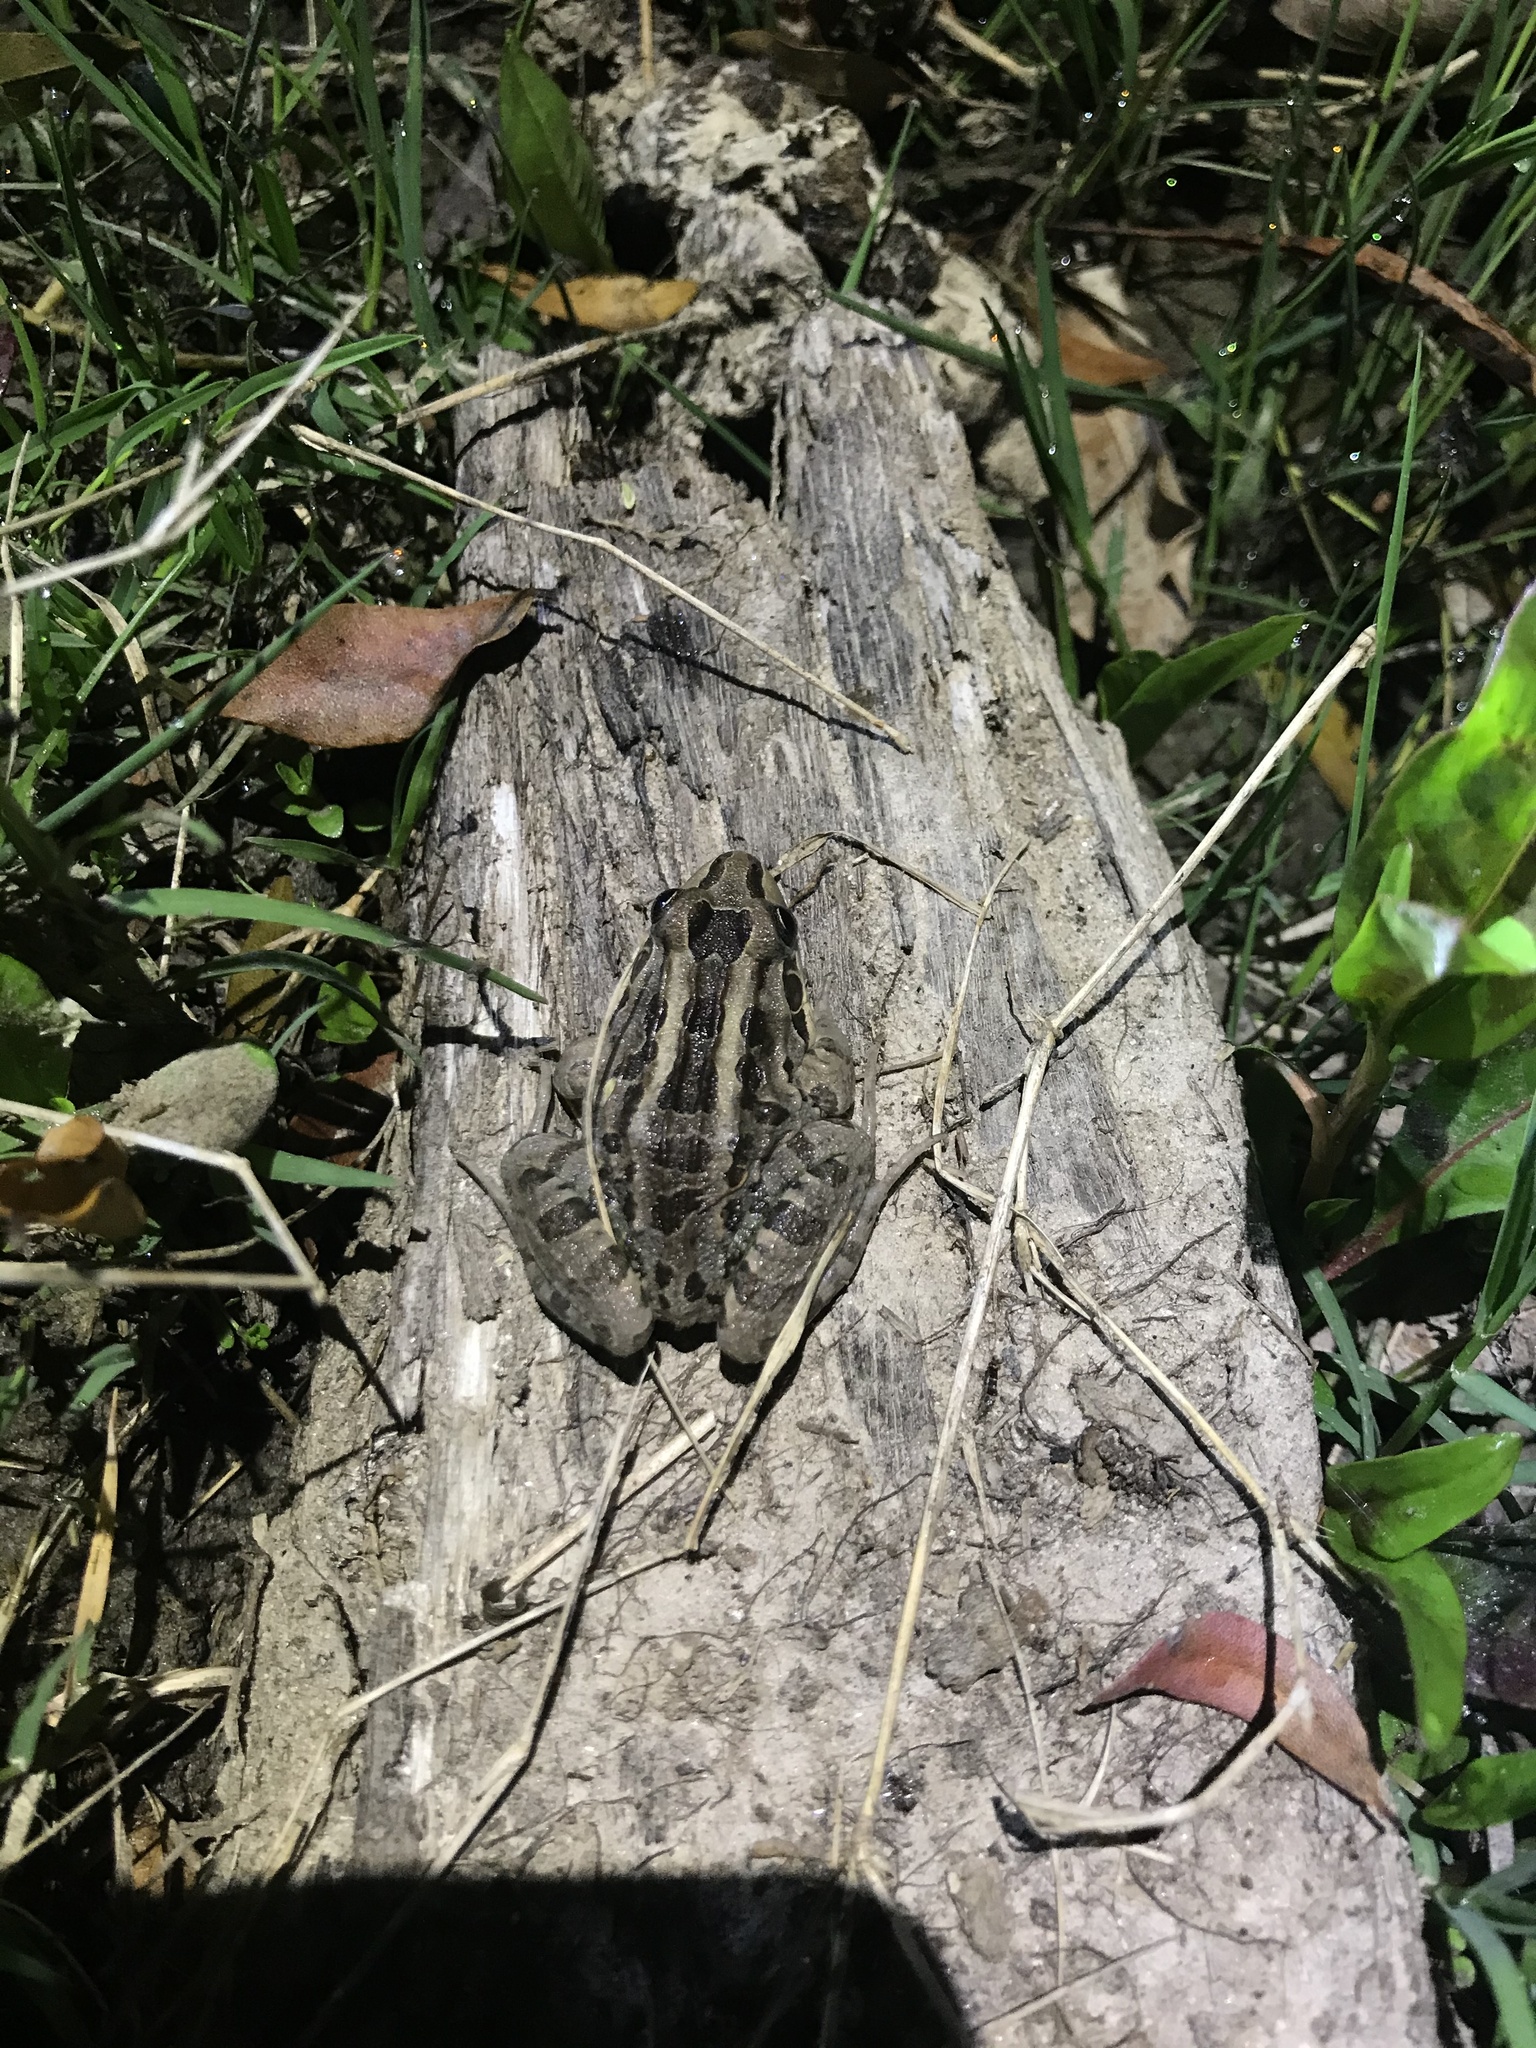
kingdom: Animalia
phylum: Chordata
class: Amphibia
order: Anura
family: Leptodactylidae
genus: Leptodactylus
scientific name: Leptodactylus luctator
